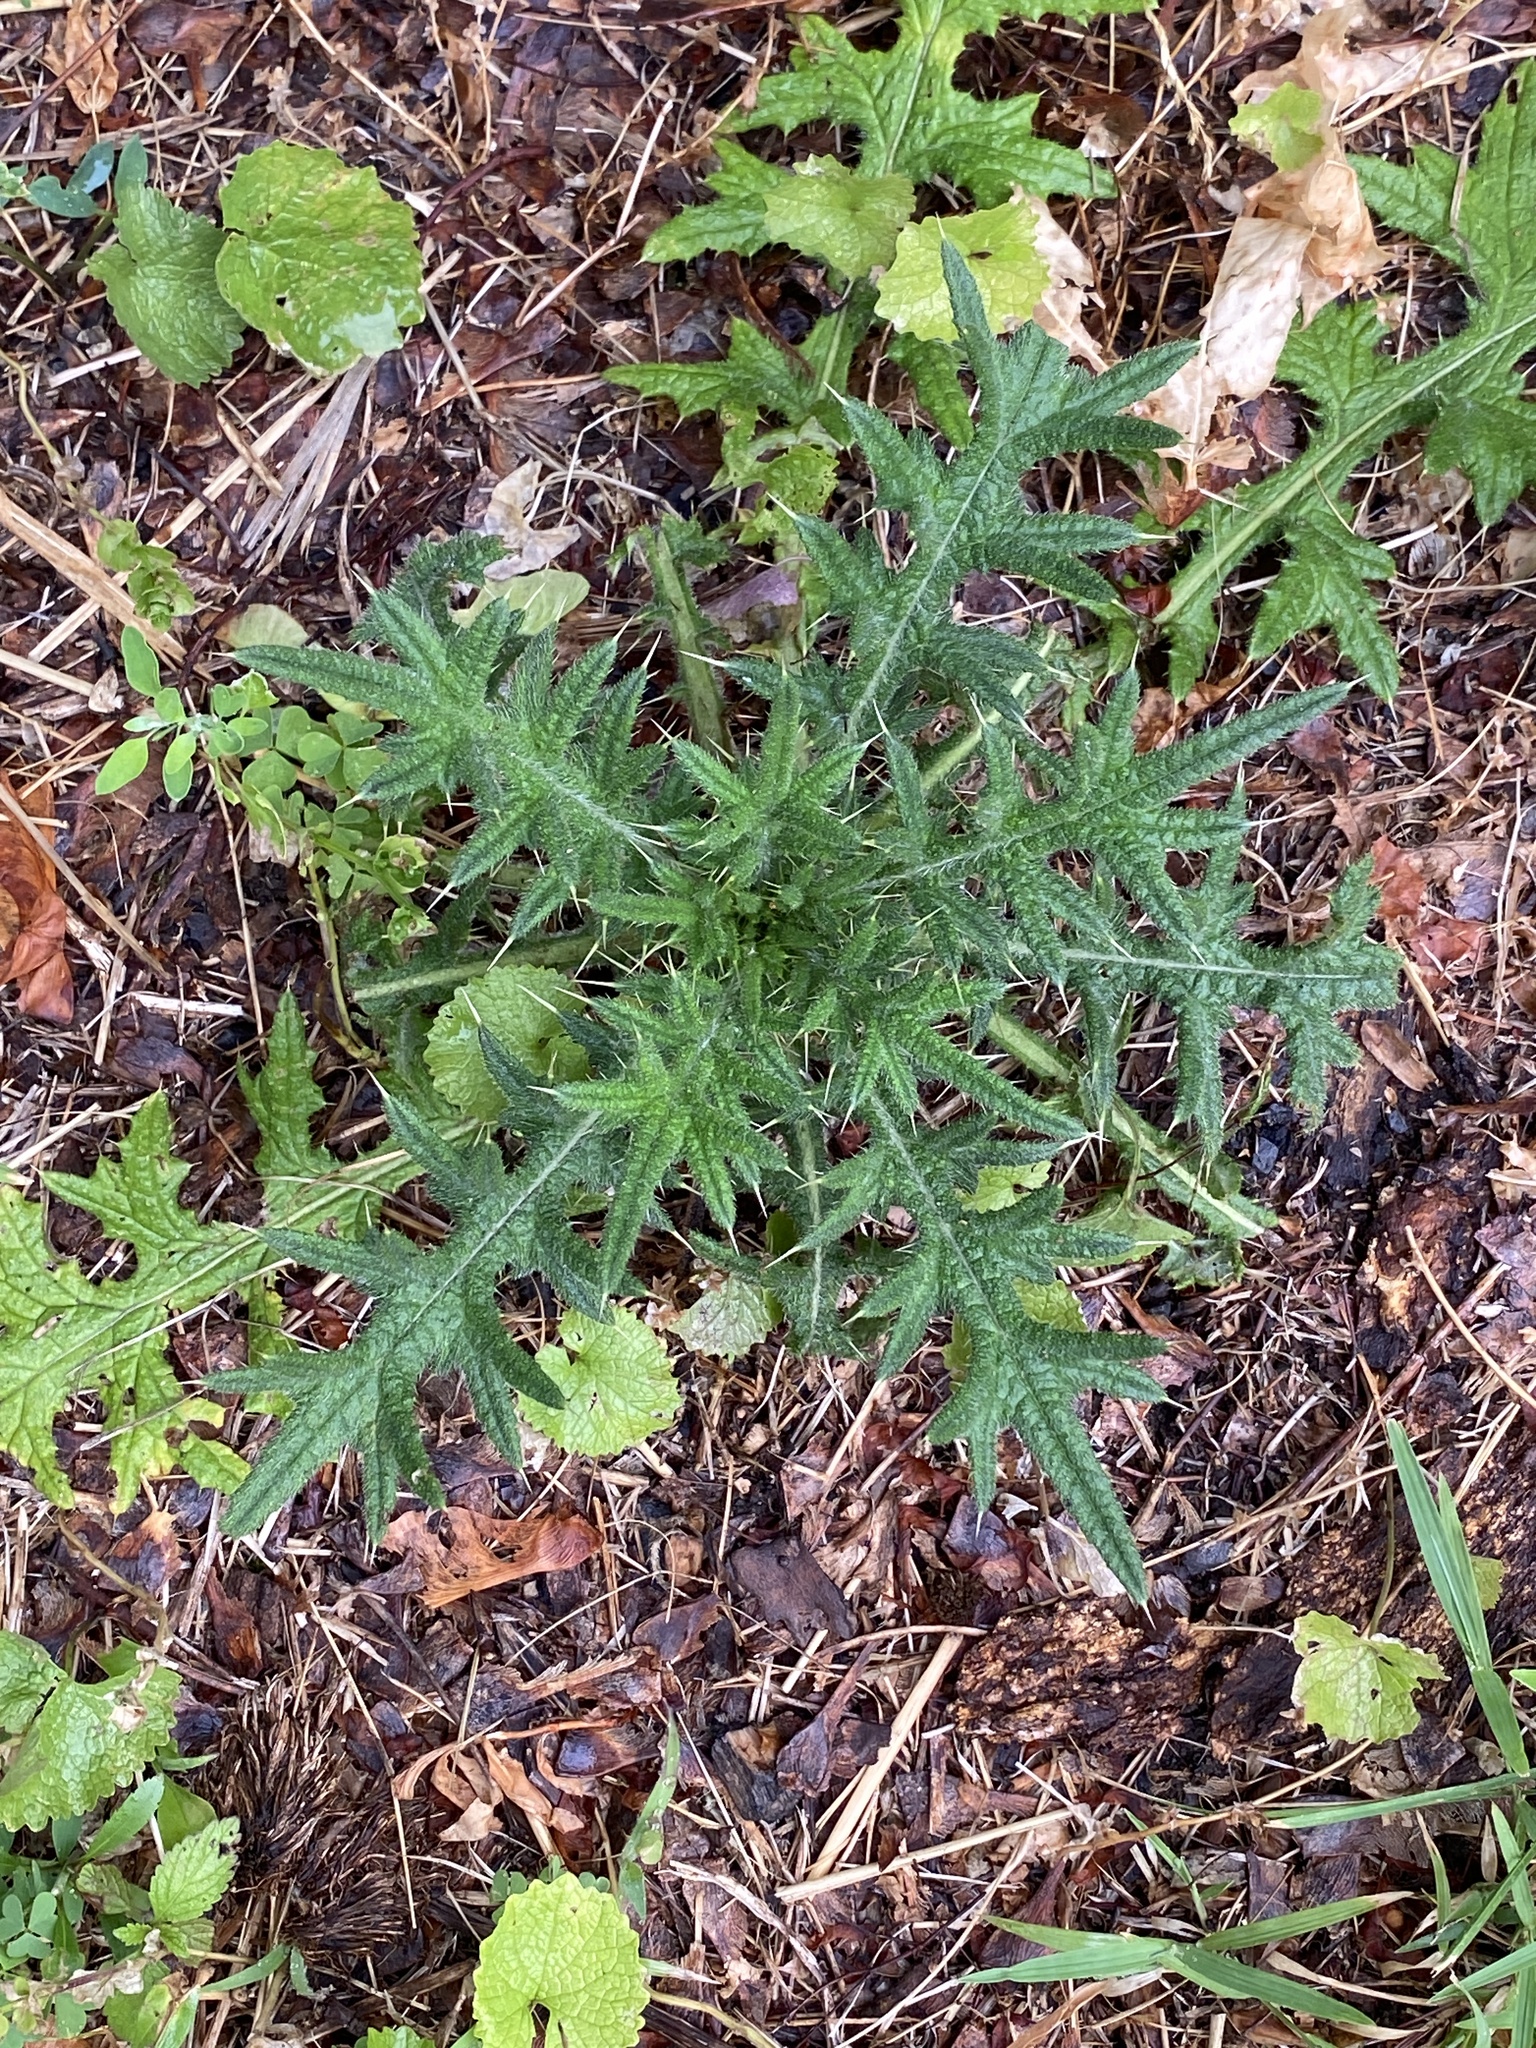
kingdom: Plantae
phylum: Tracheophyta
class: Magnoliopsida
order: Asterales
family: Asteraceae
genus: Cirsium
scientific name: Cirsium vulgare
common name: Bull thistle
